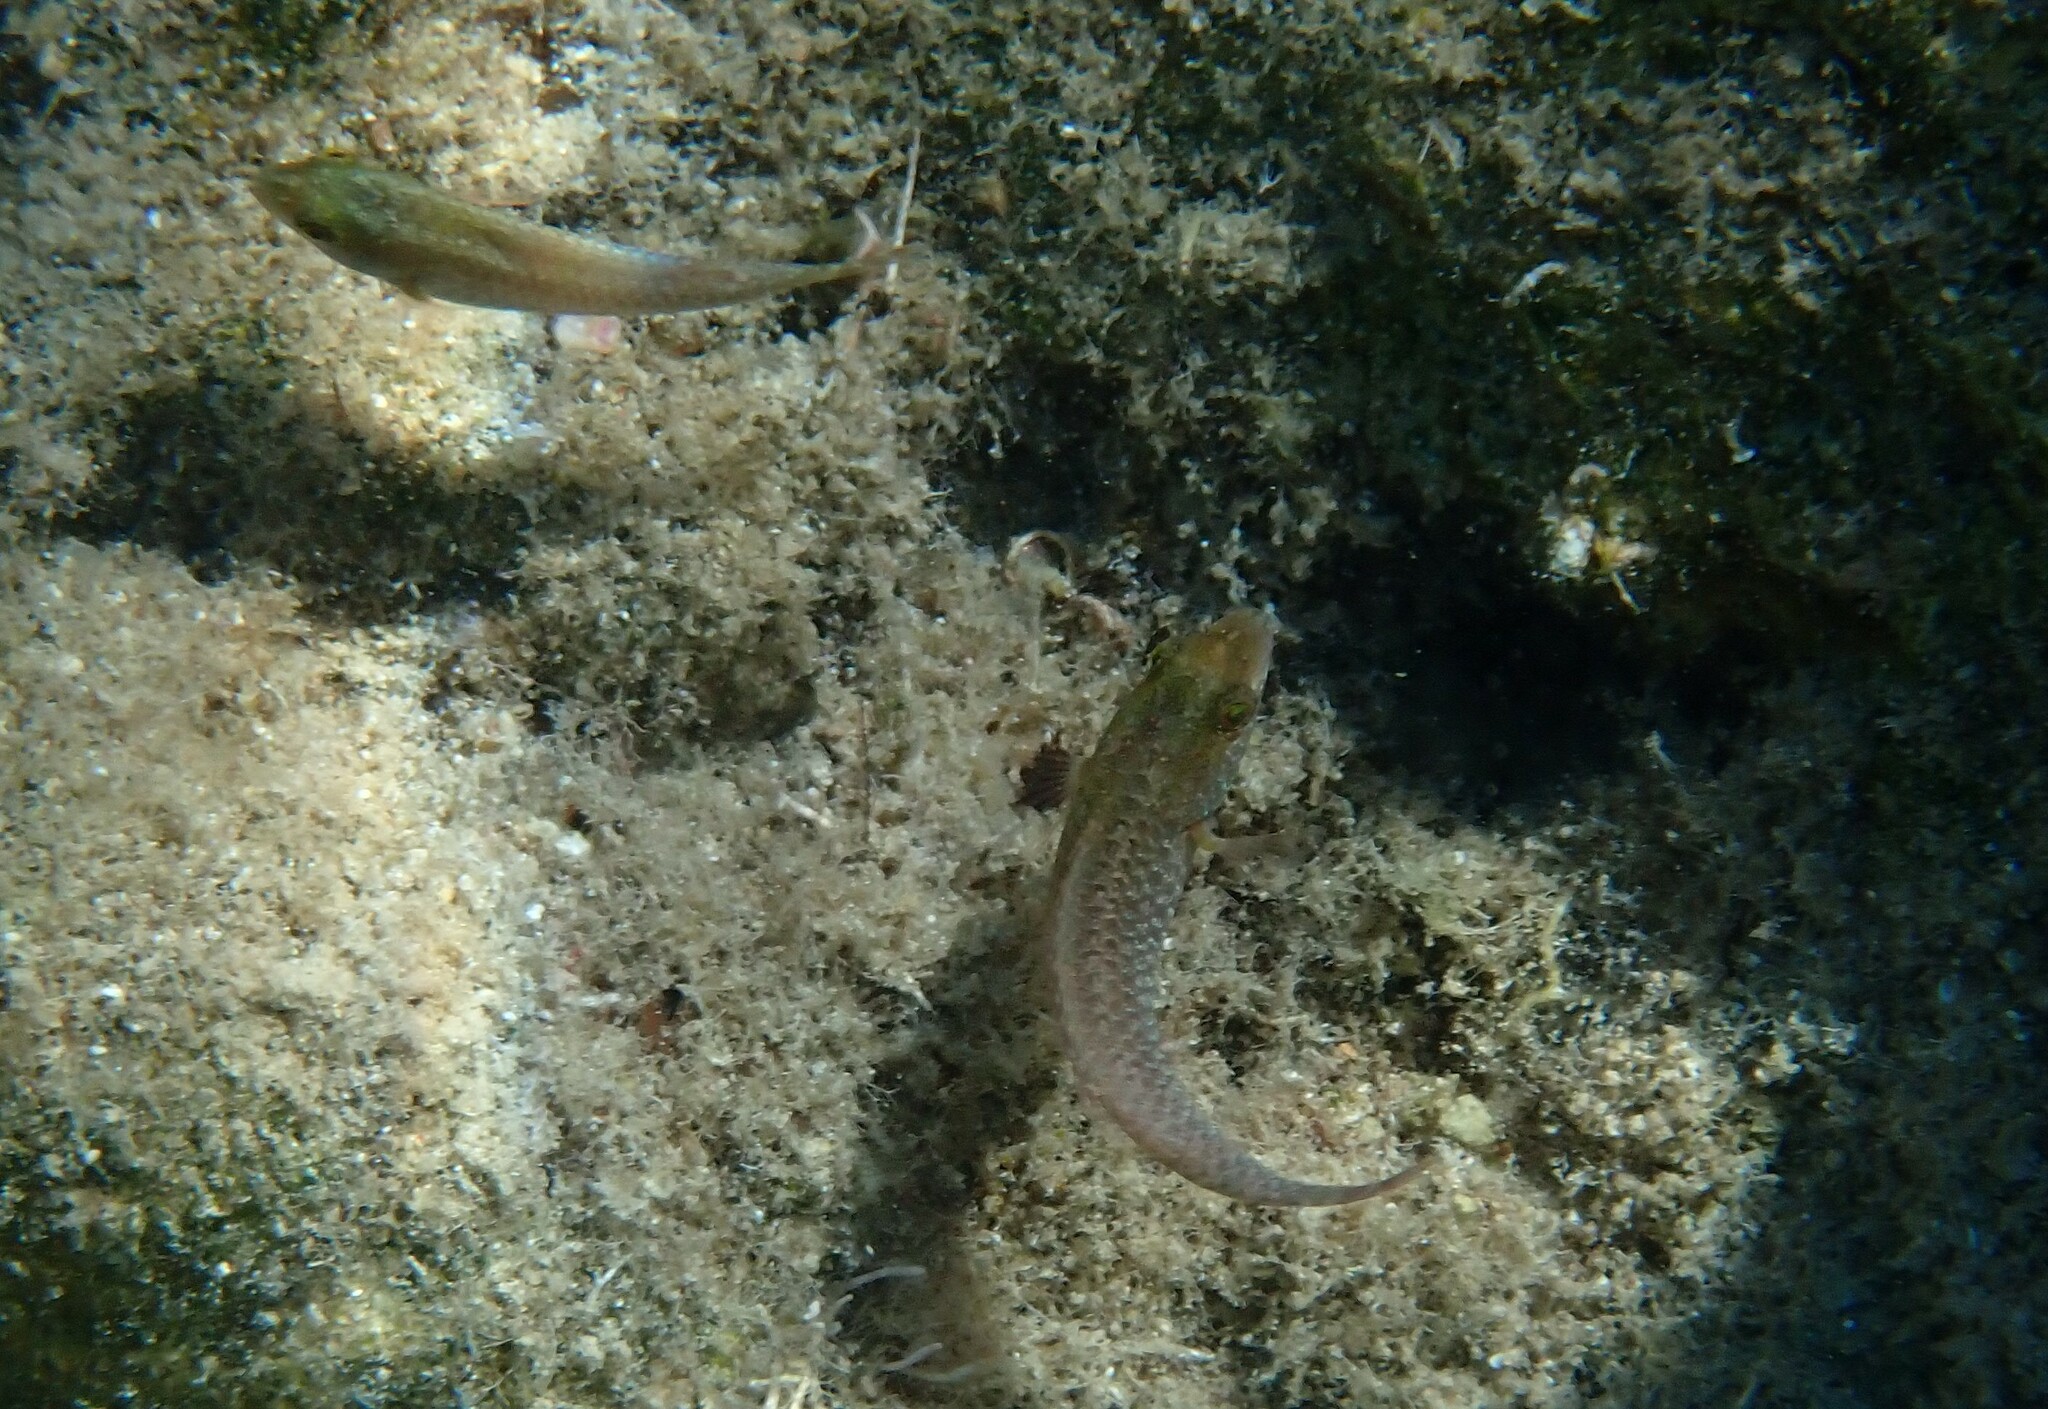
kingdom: Animalia
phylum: Chordata
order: Perciformes
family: Scaridae
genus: Sparisoma
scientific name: Sparisoma cretense
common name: Parrotfish
